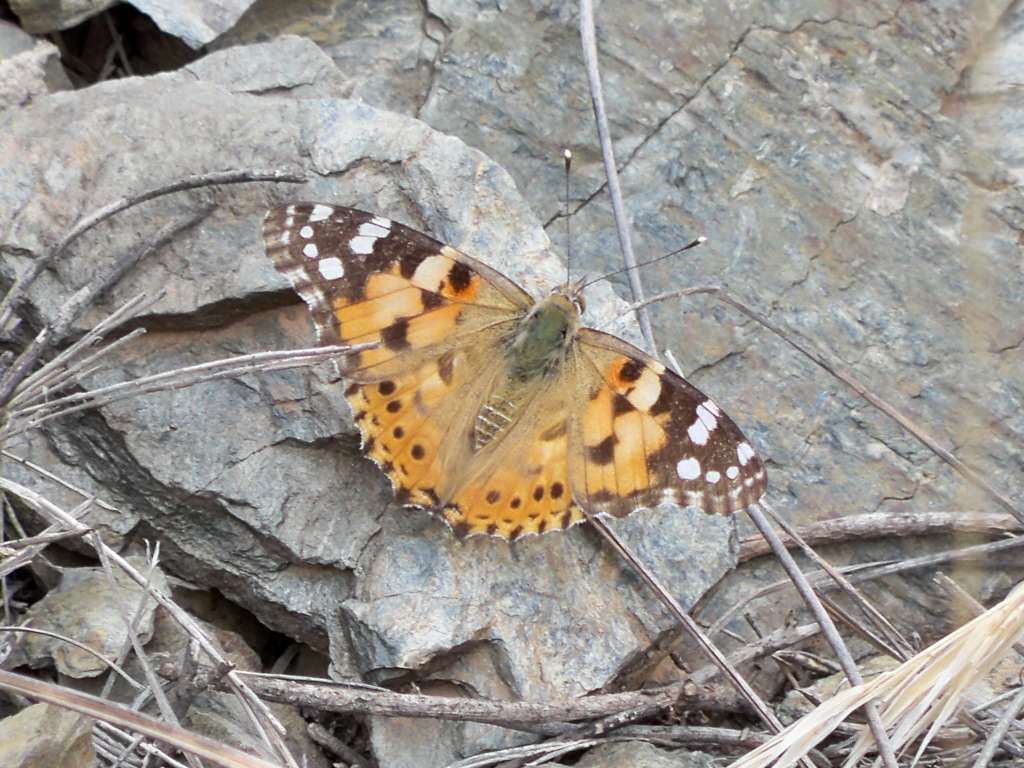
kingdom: Animalia
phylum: Arthropoda
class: Insecta
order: Lepidoptera
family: Nymphalidae
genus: Vanessa
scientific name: Vanessa cardui
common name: Painted lady
